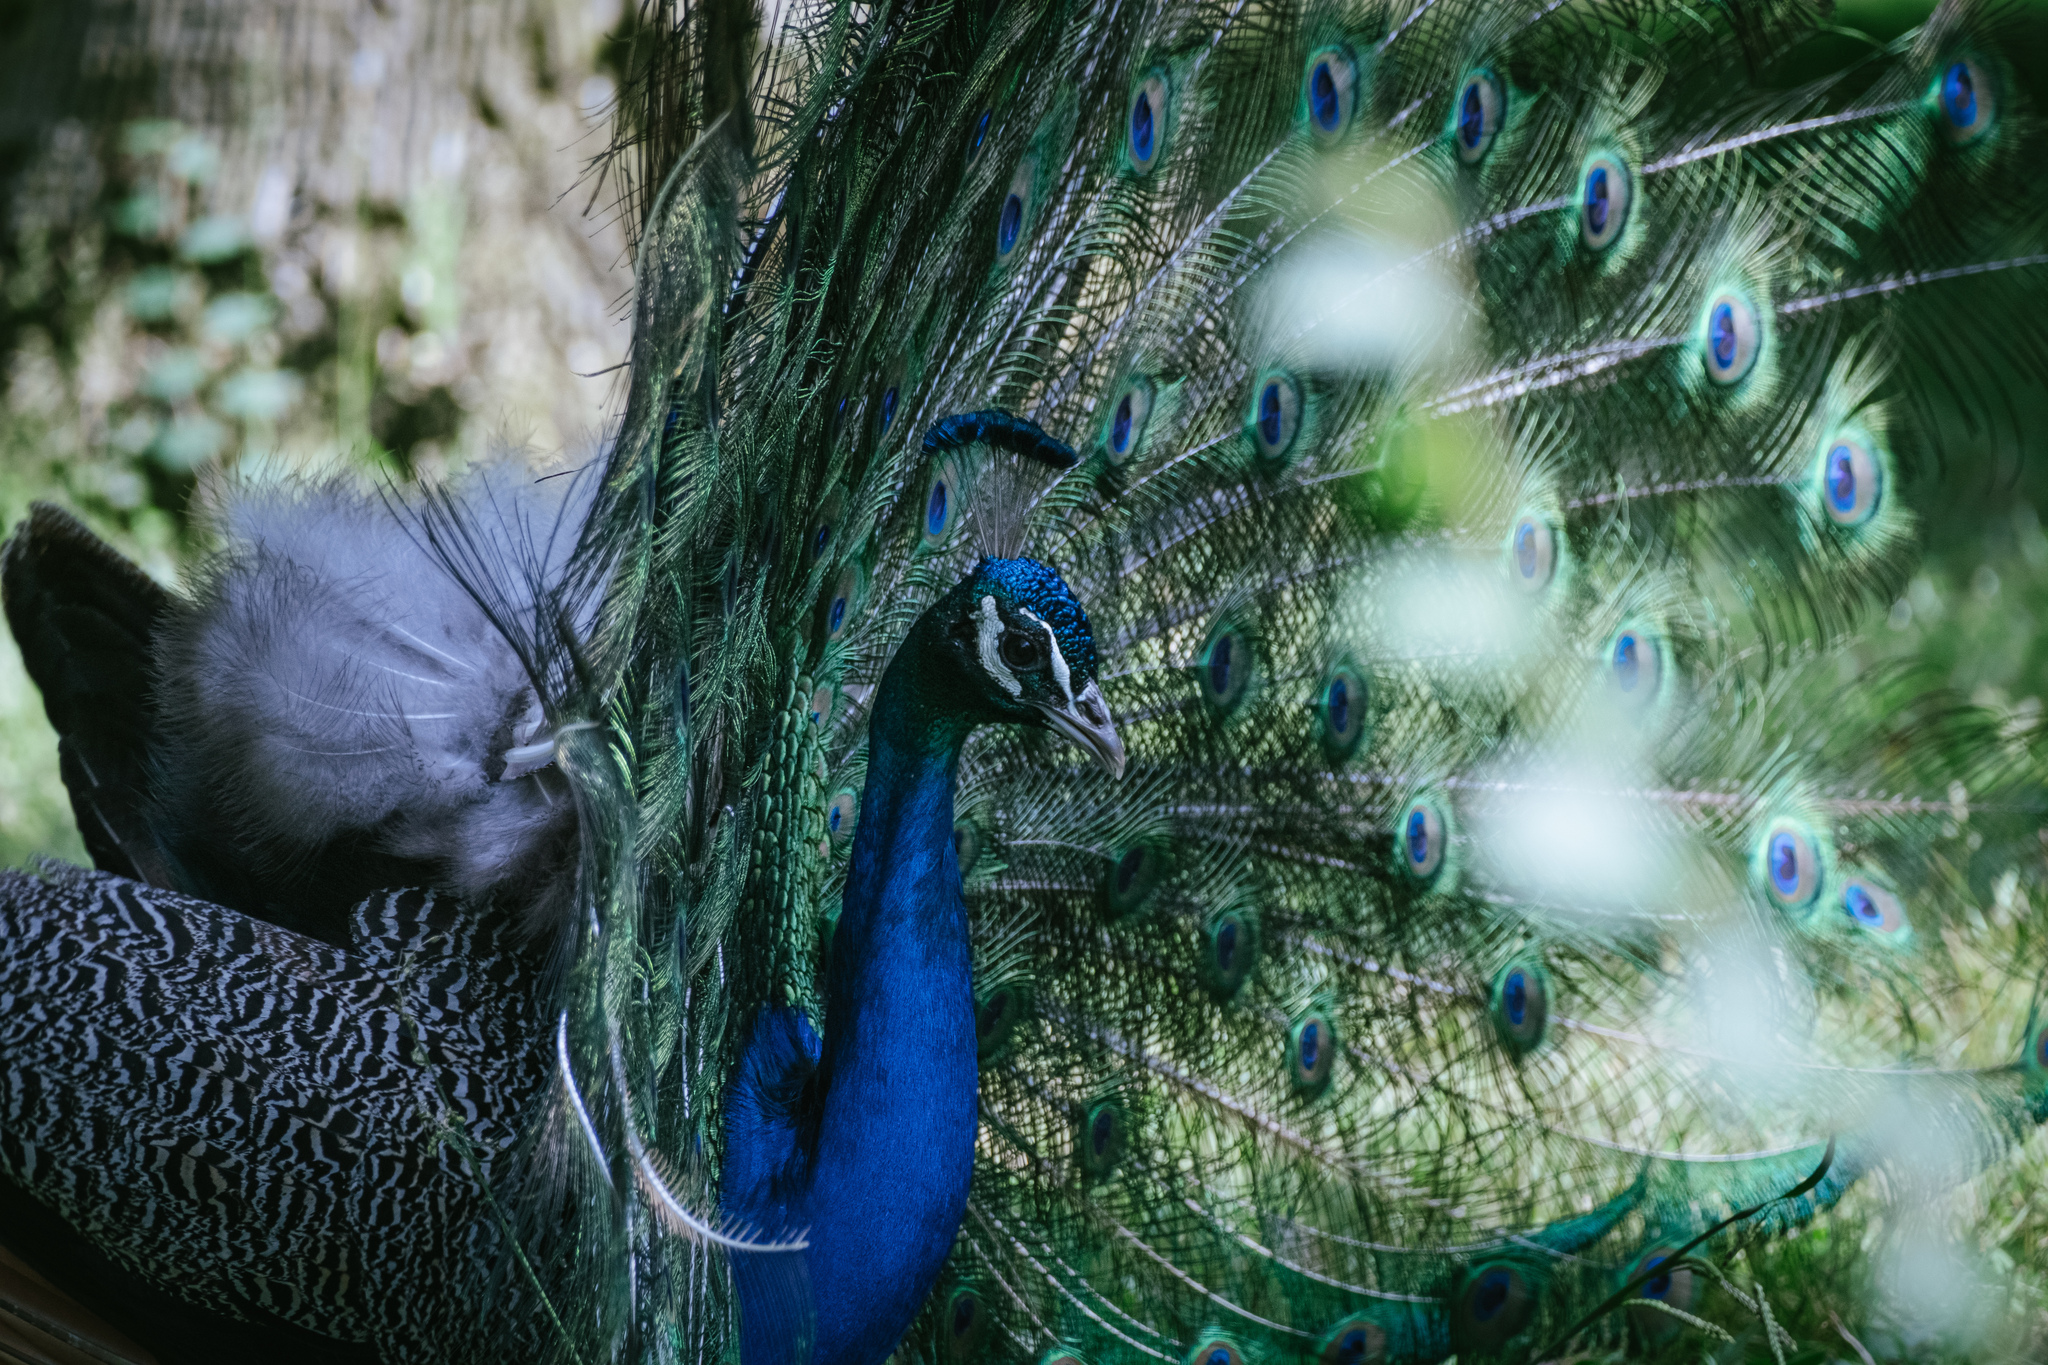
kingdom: Animalia
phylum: Chordata
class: Aves
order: Galliformes
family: Phasianidae
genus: Pavo
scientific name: Pavo cristatus
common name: Indian peafowl
